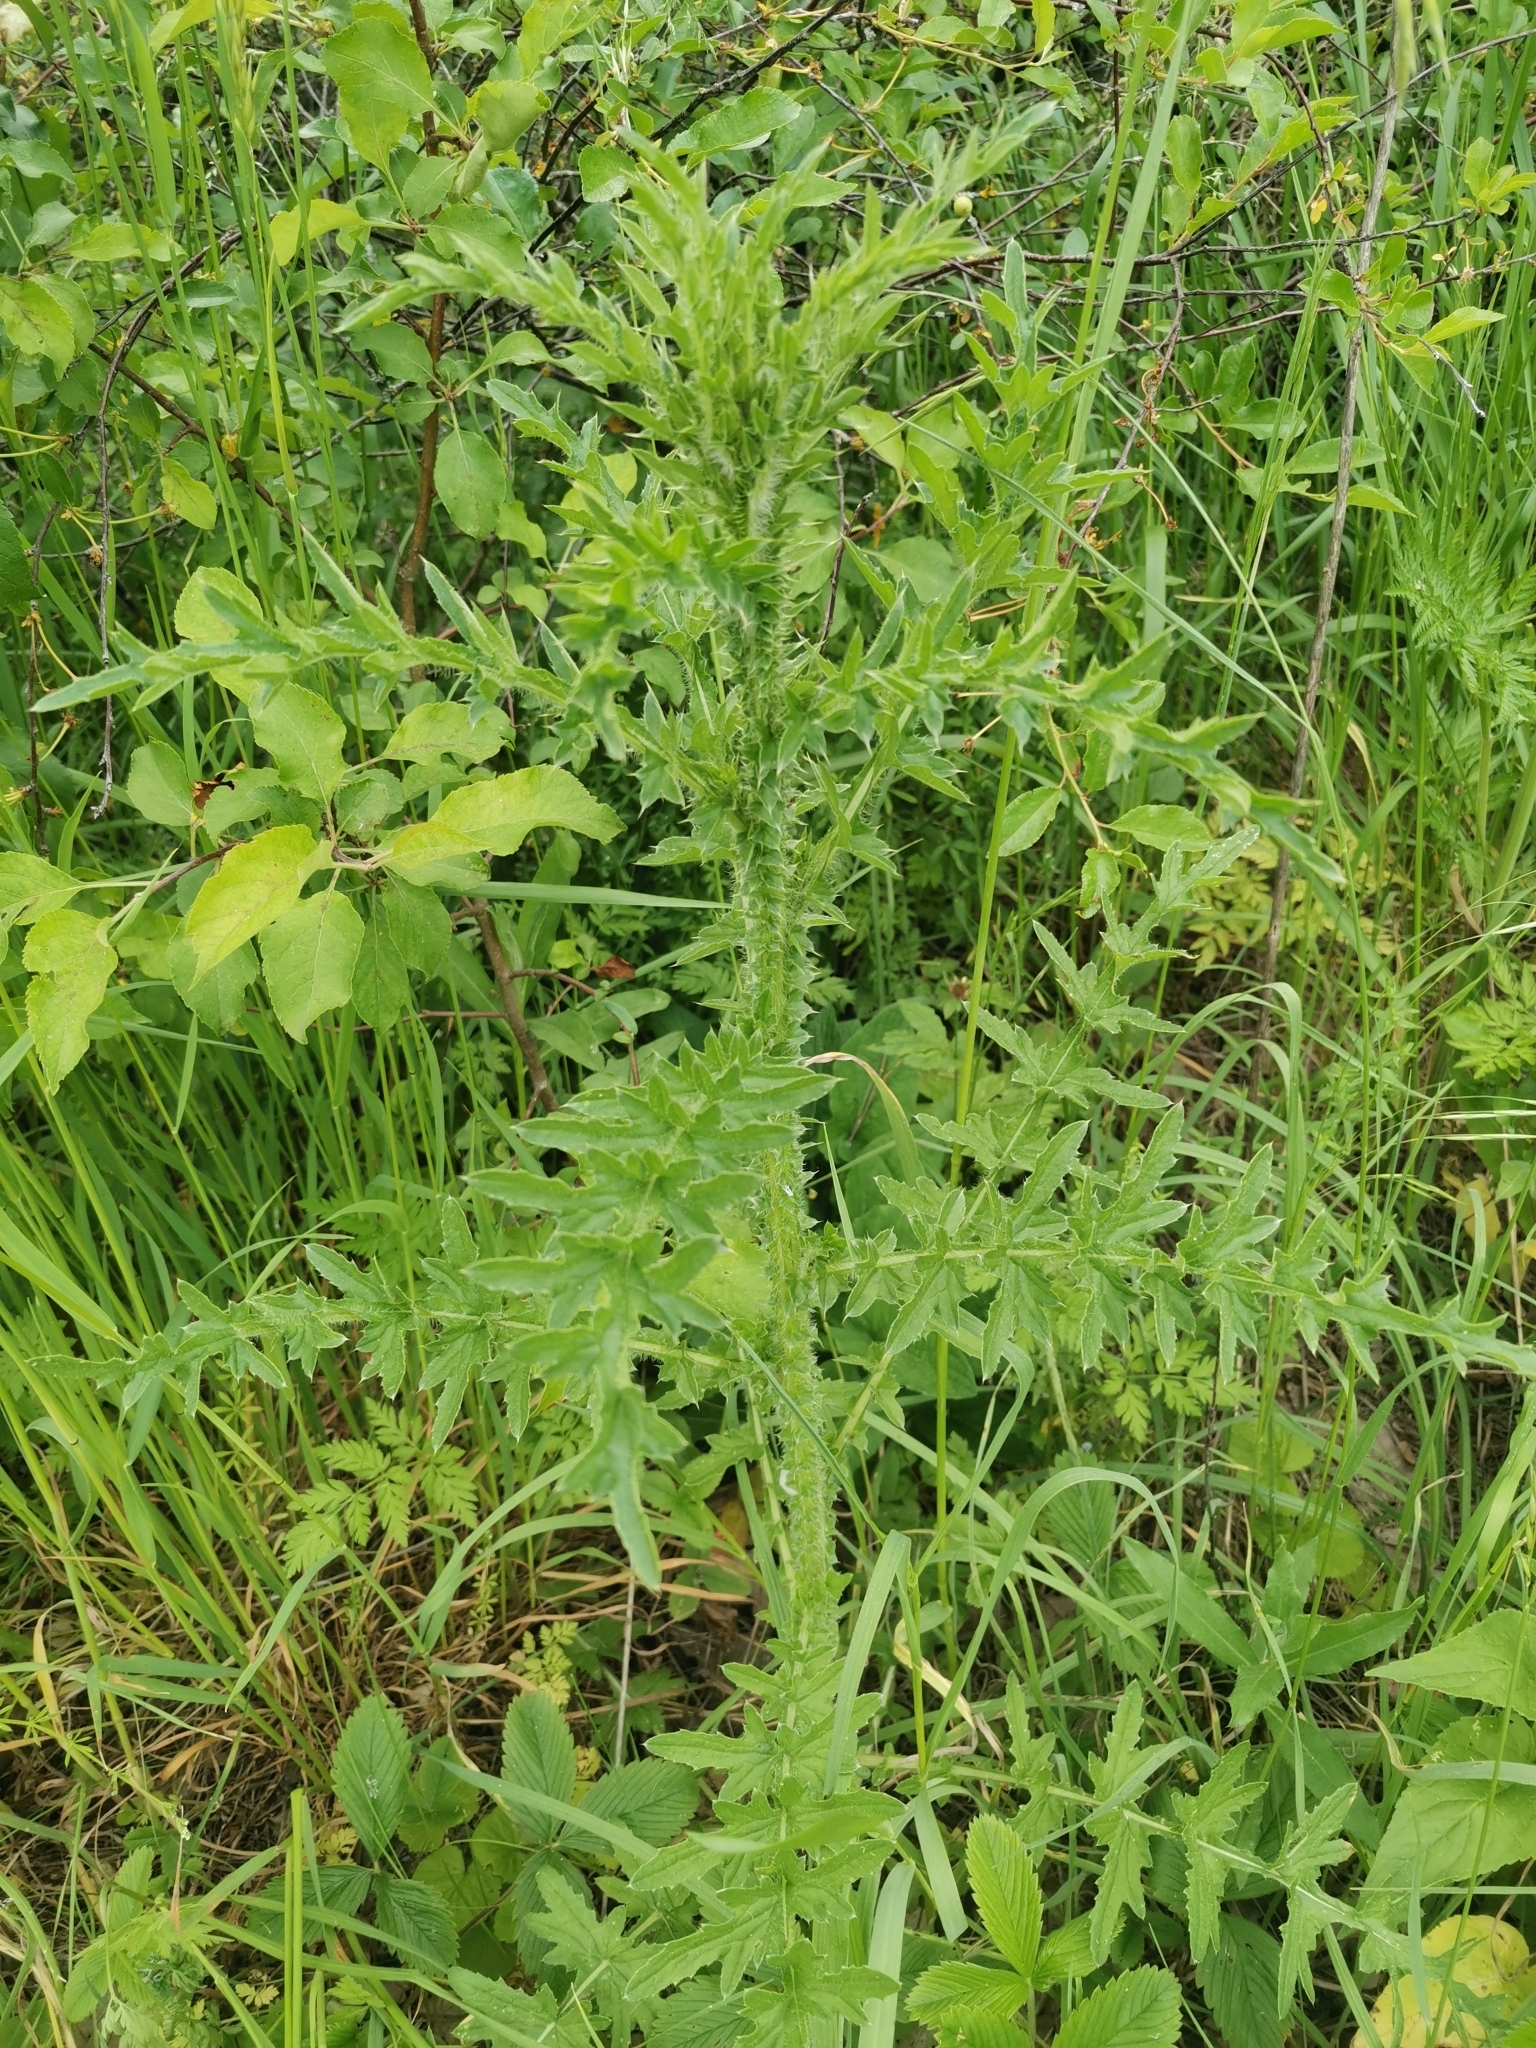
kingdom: Plantae
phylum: Tracheophyta
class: Magnoliopsida
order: Asterales
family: Asteraceae
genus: Carduus
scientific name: Carduus acanthoides
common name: Plumeless thistle
